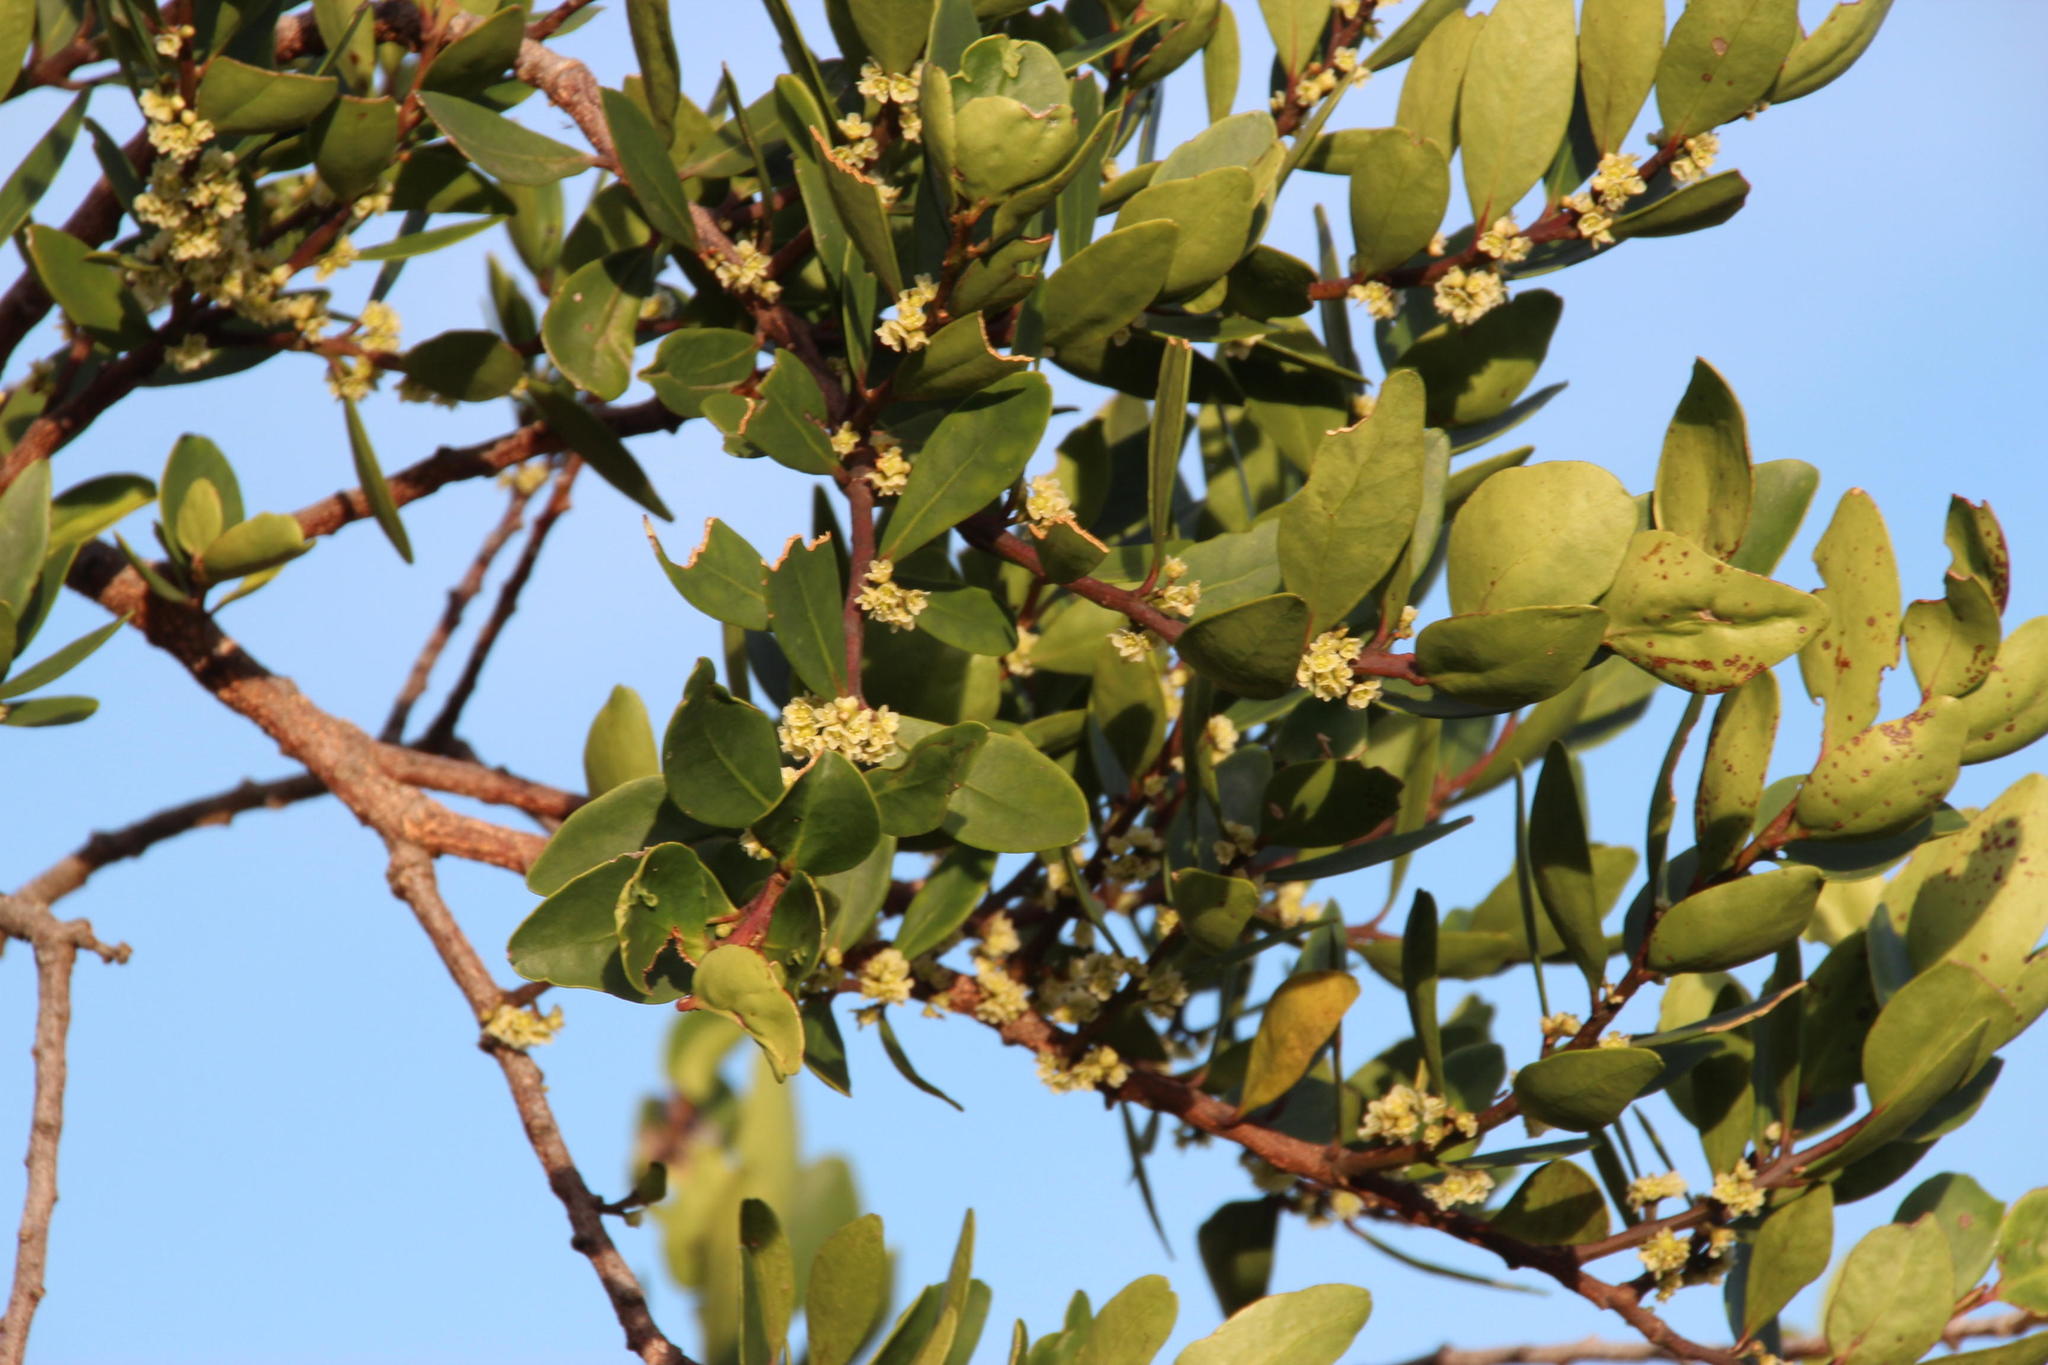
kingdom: Plantae
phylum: Tracheophyta
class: Magnoliopsida
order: Celastrales
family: Celastraceae
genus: Gymnosporia
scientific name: Gymnosporia laurina
